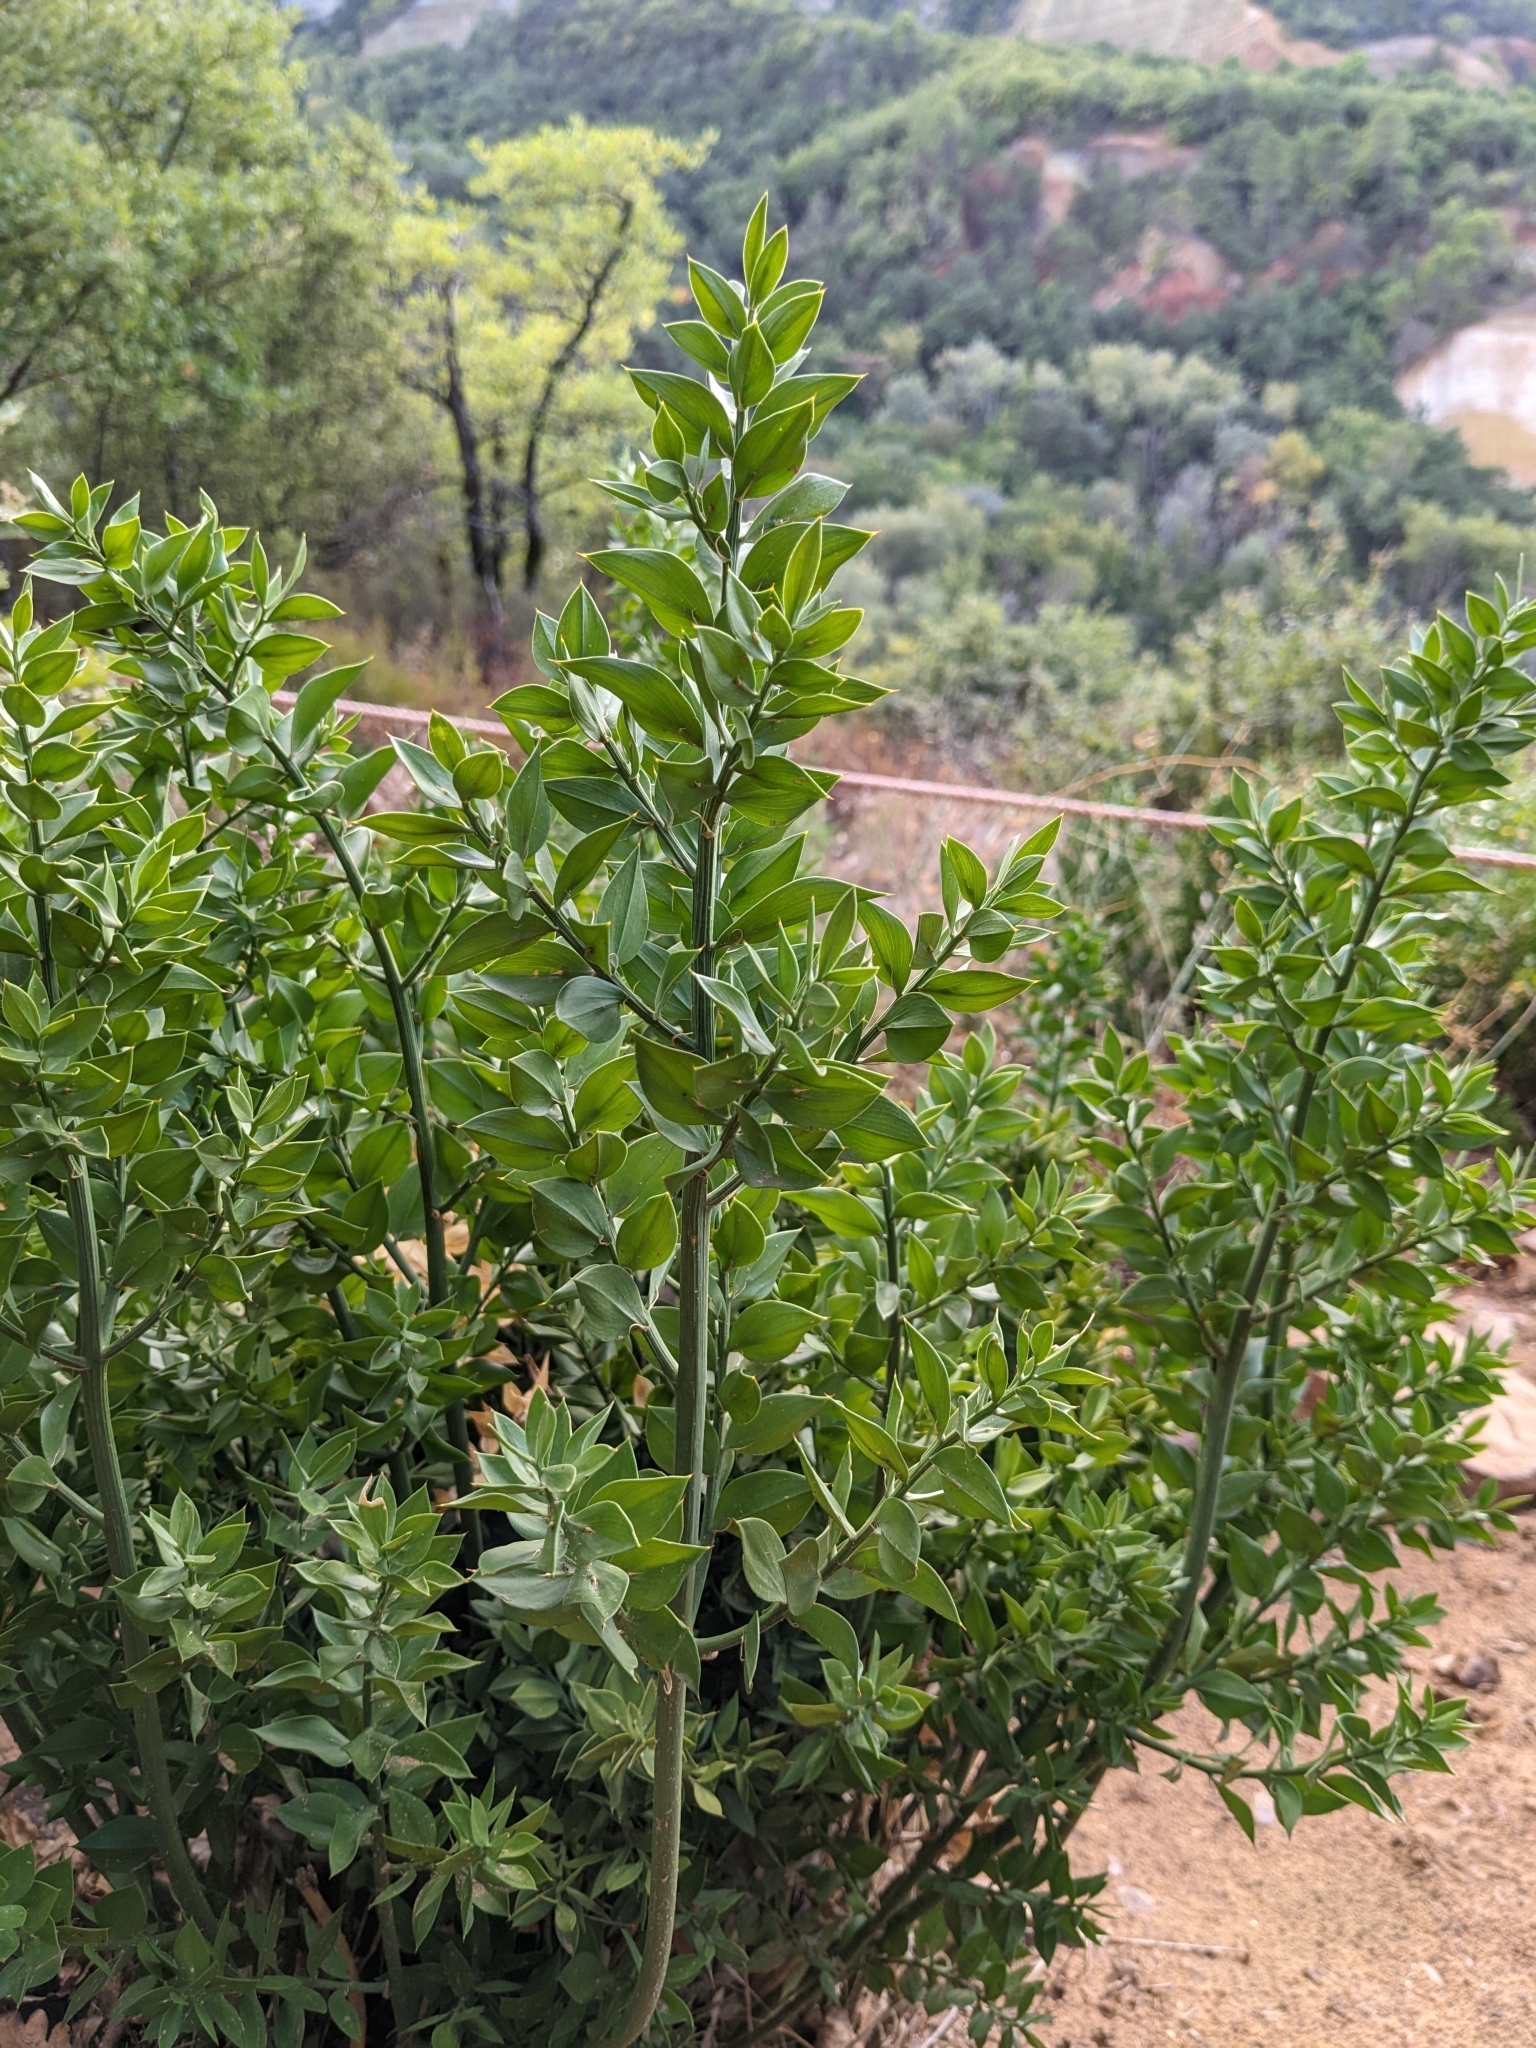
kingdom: Plantae
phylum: Tracheophyta
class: Liliopsida
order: Asparagales
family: Asparagaceae
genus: Ruscus
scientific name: Ruscus aculeatus
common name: Butcher's-broom
